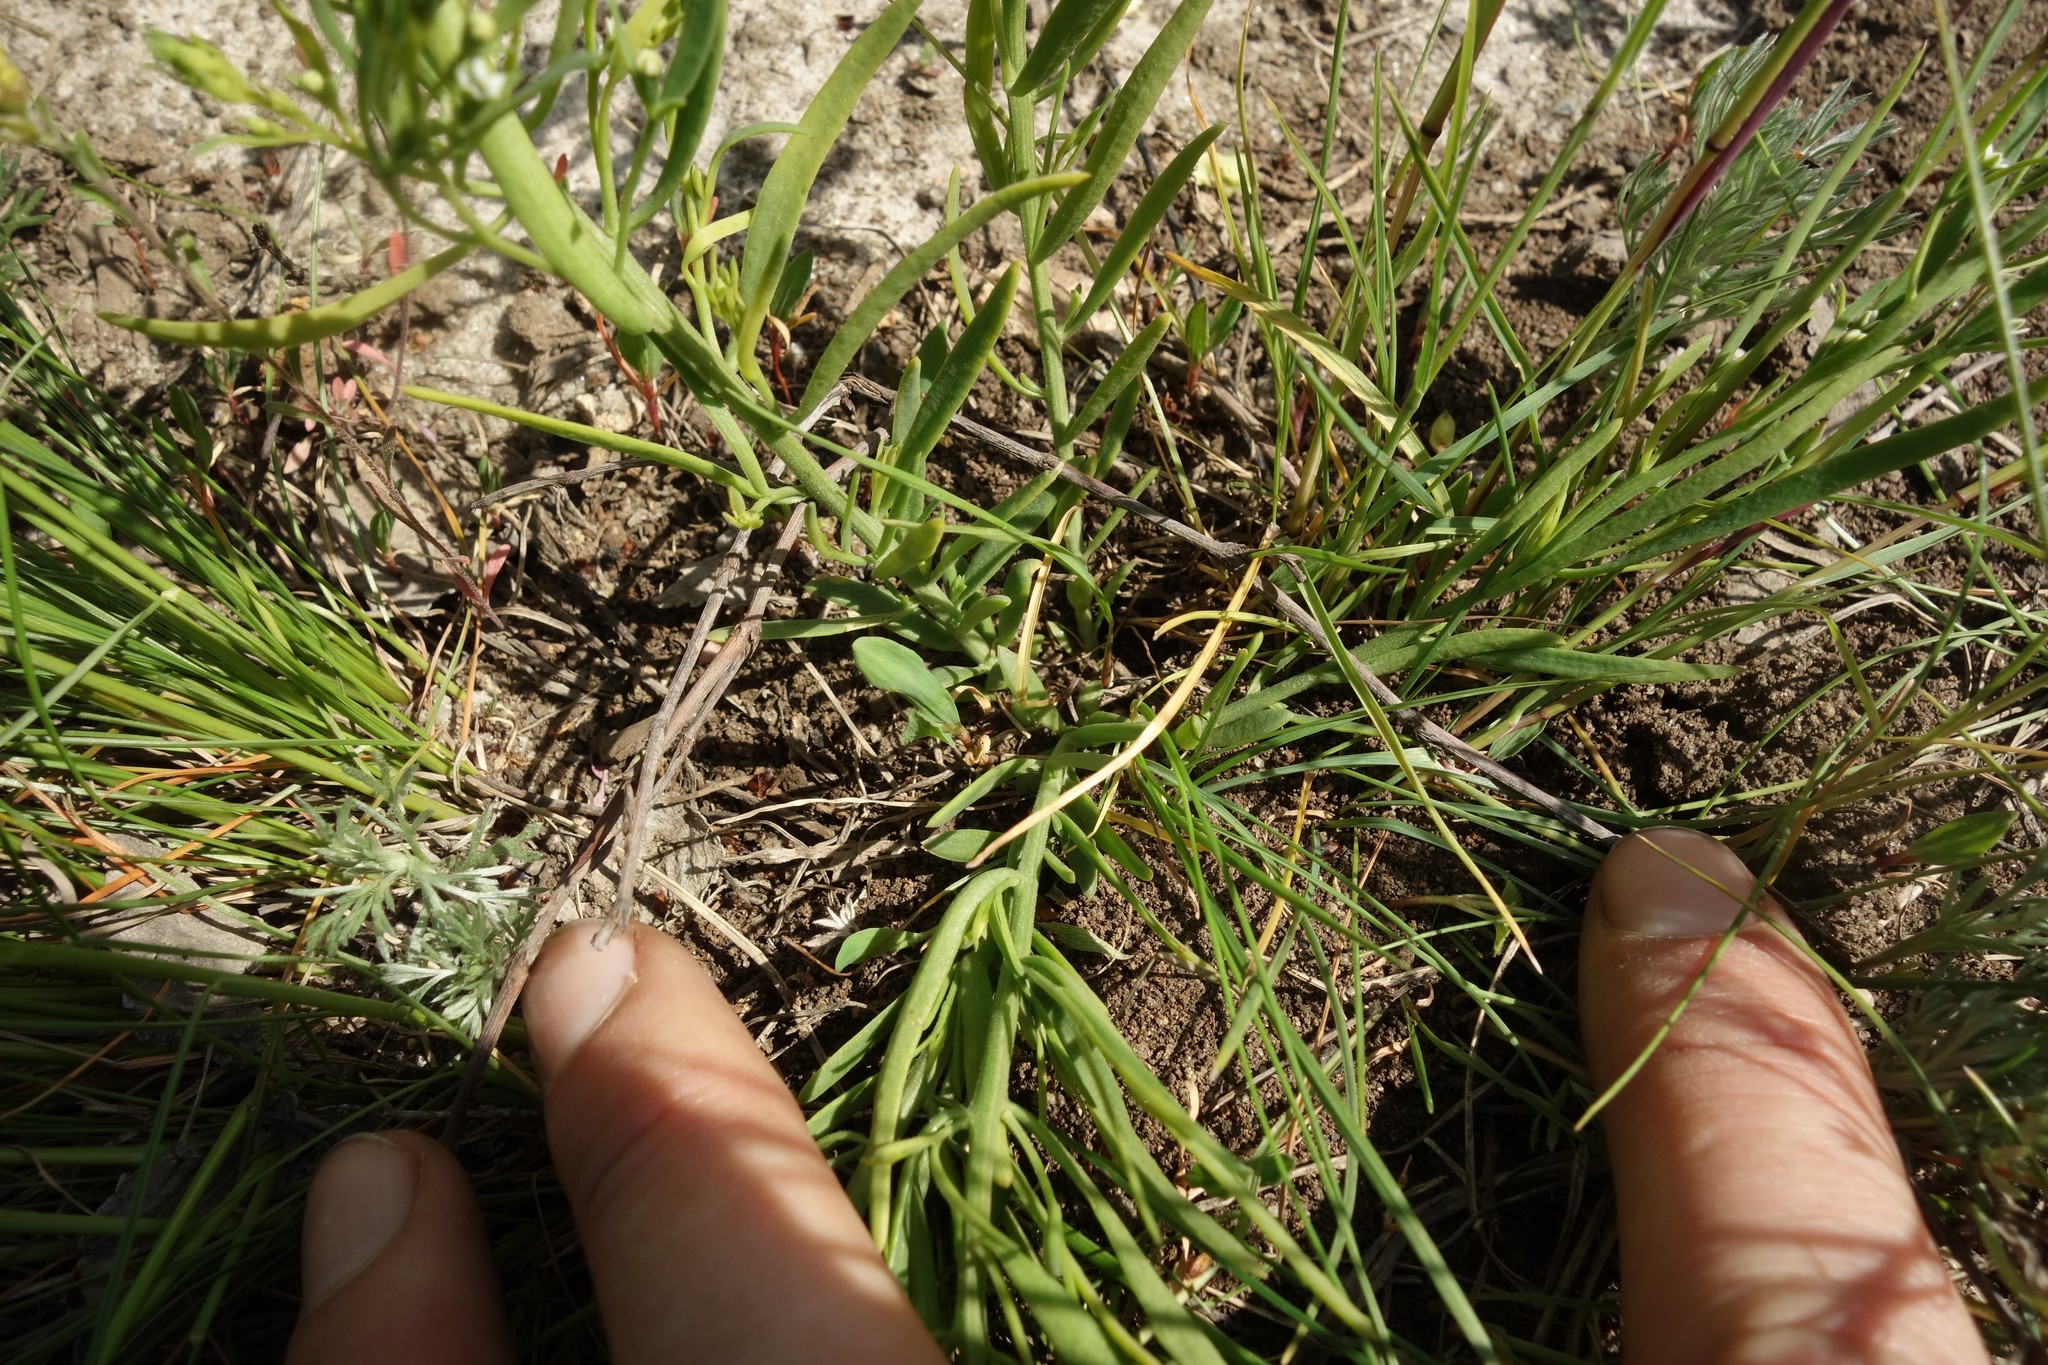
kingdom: Plantae
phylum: Tracheophyta
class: Magnoliopsida
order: Santalales
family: Thesiaceae
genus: Thesium
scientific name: Thesium ramosum
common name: Field thesium
